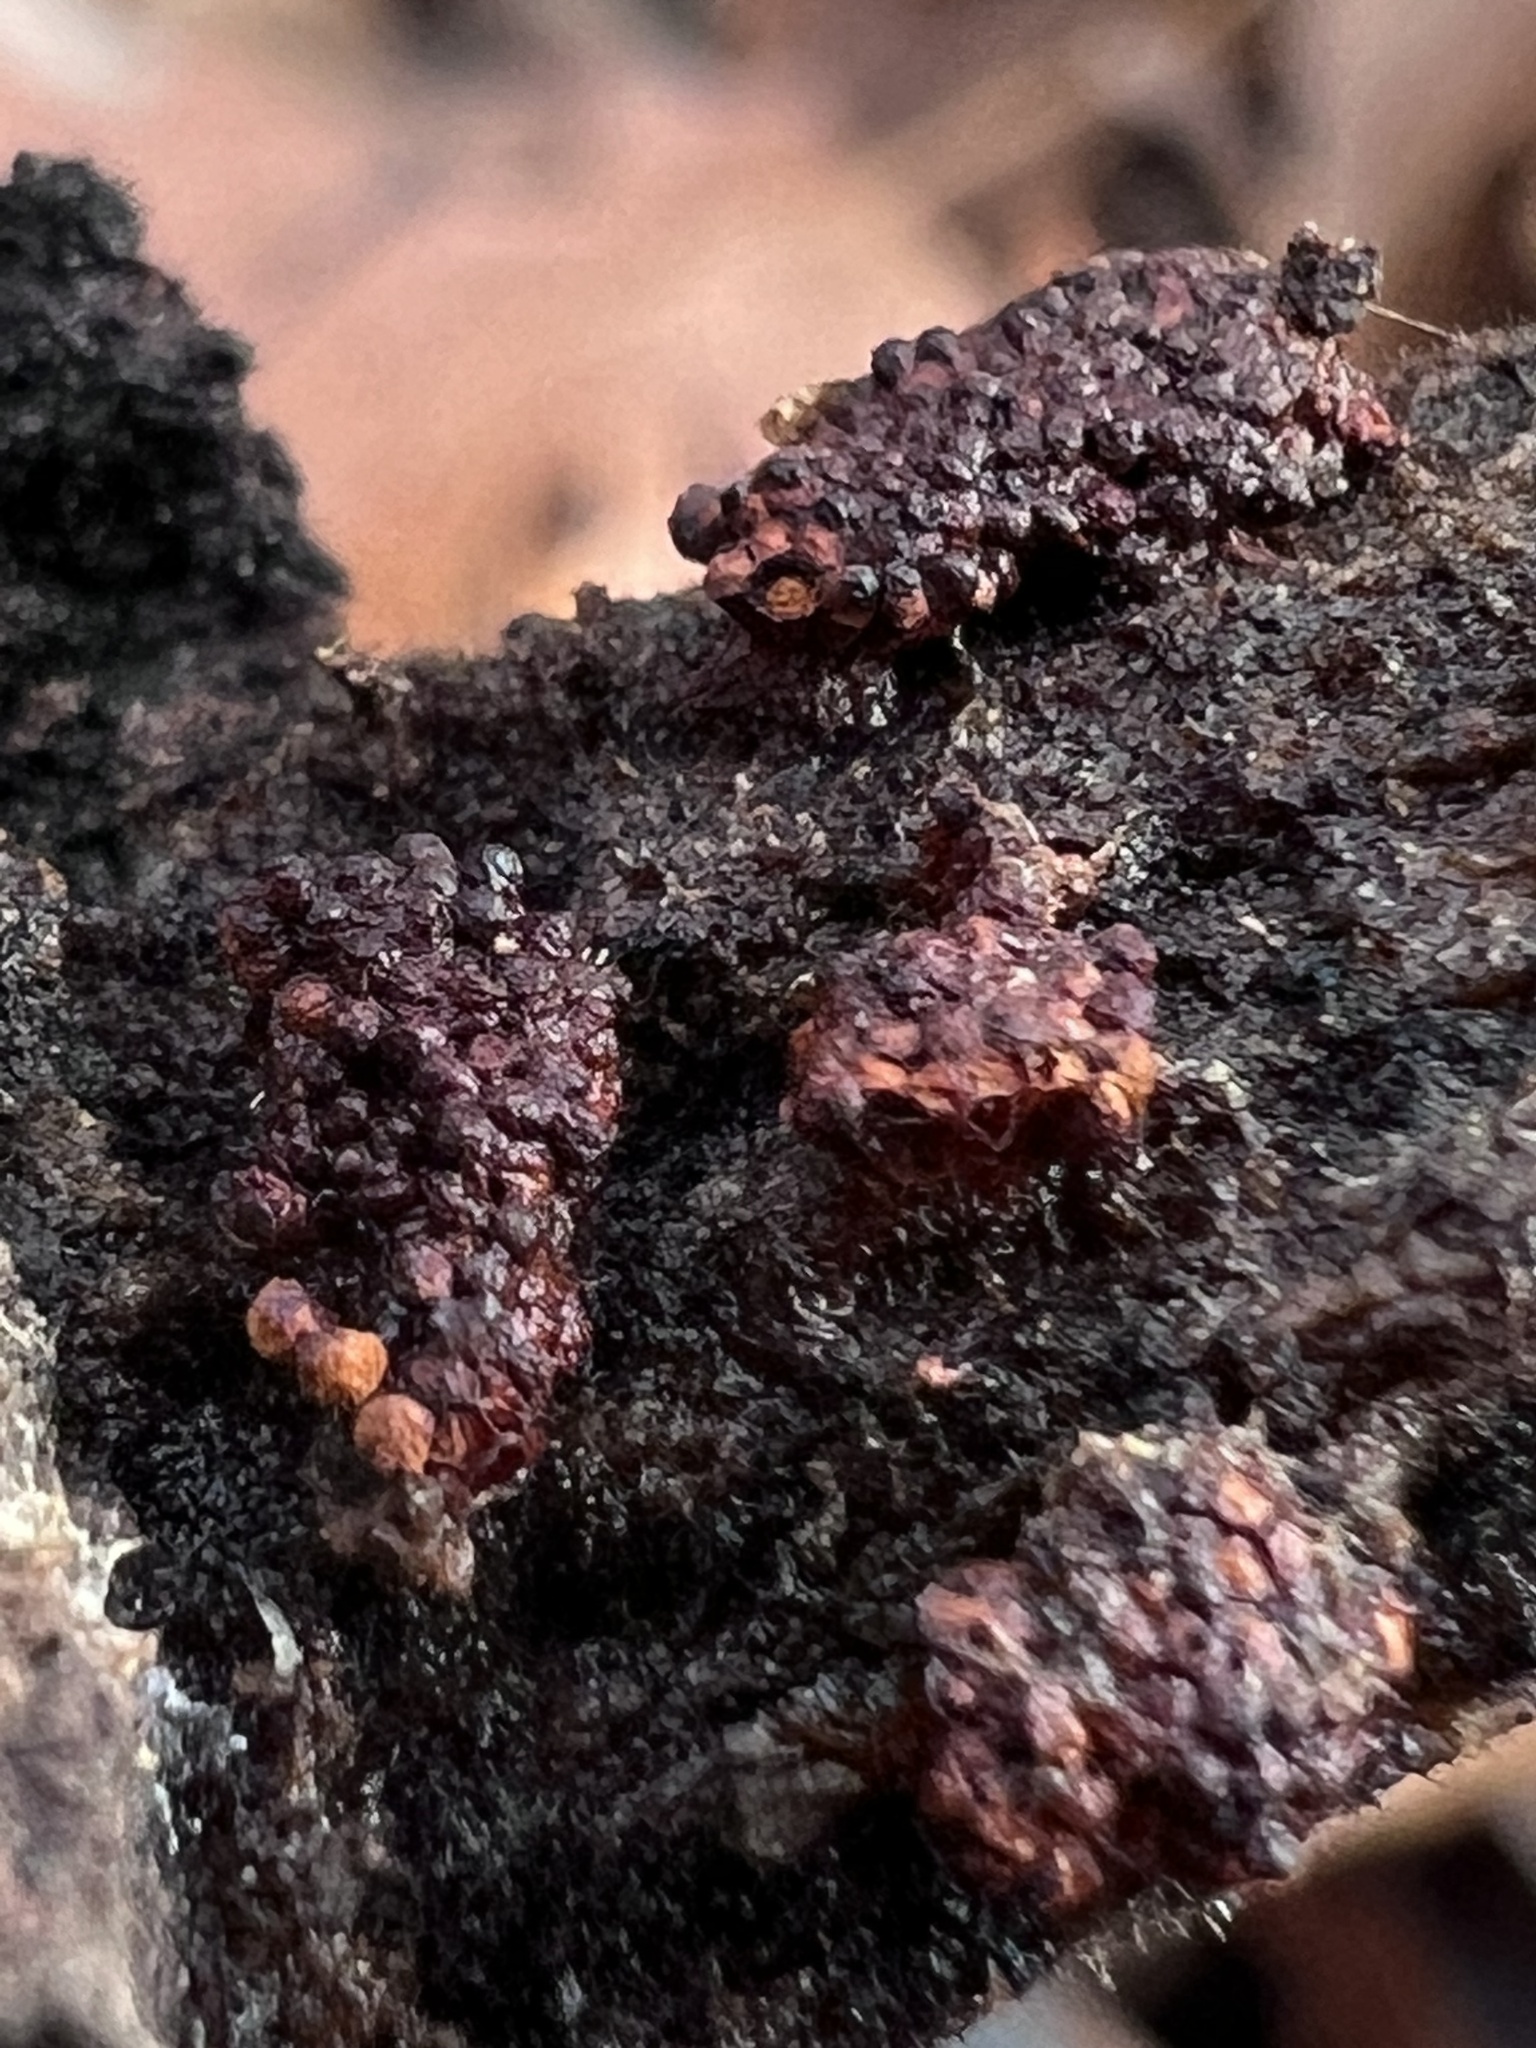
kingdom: Protozoa
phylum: Mycetozoa
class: Myxomycetes
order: Trichiales
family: Trichiaceae
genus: Metatrichia
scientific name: Metatrichia vesparia
